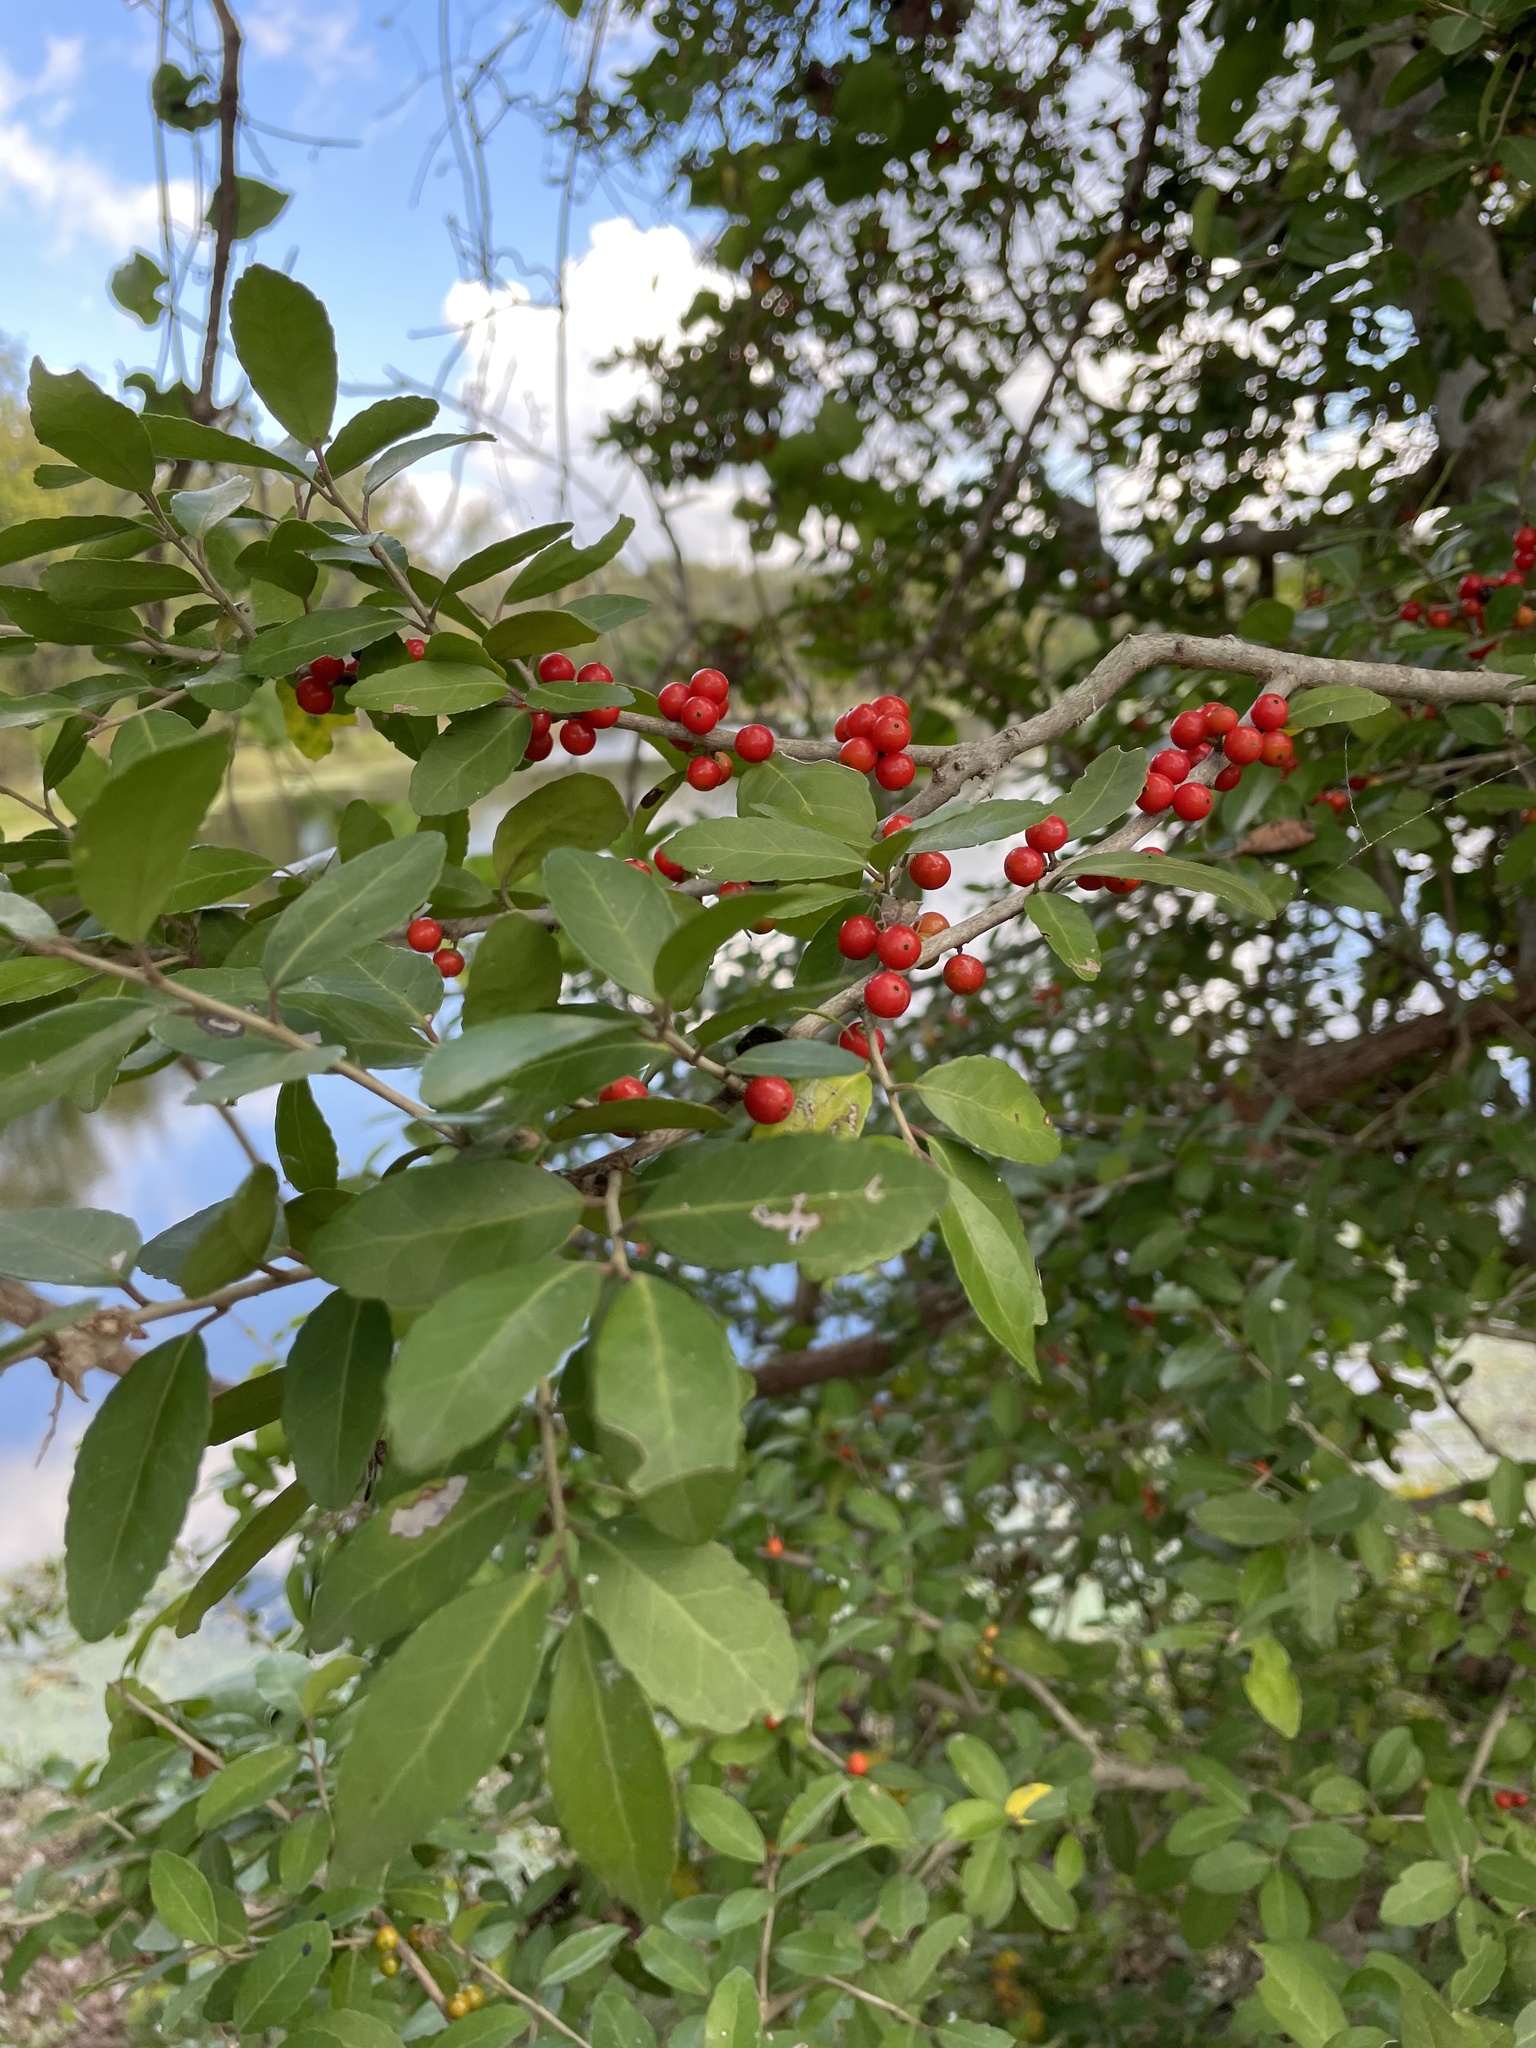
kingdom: Plantae
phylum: Tracheophyta
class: Magnoliopsida
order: Aquifoliales
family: Aquifoliaceae
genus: Ilex
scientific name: Ilex vomitoria
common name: Yaupon holly
